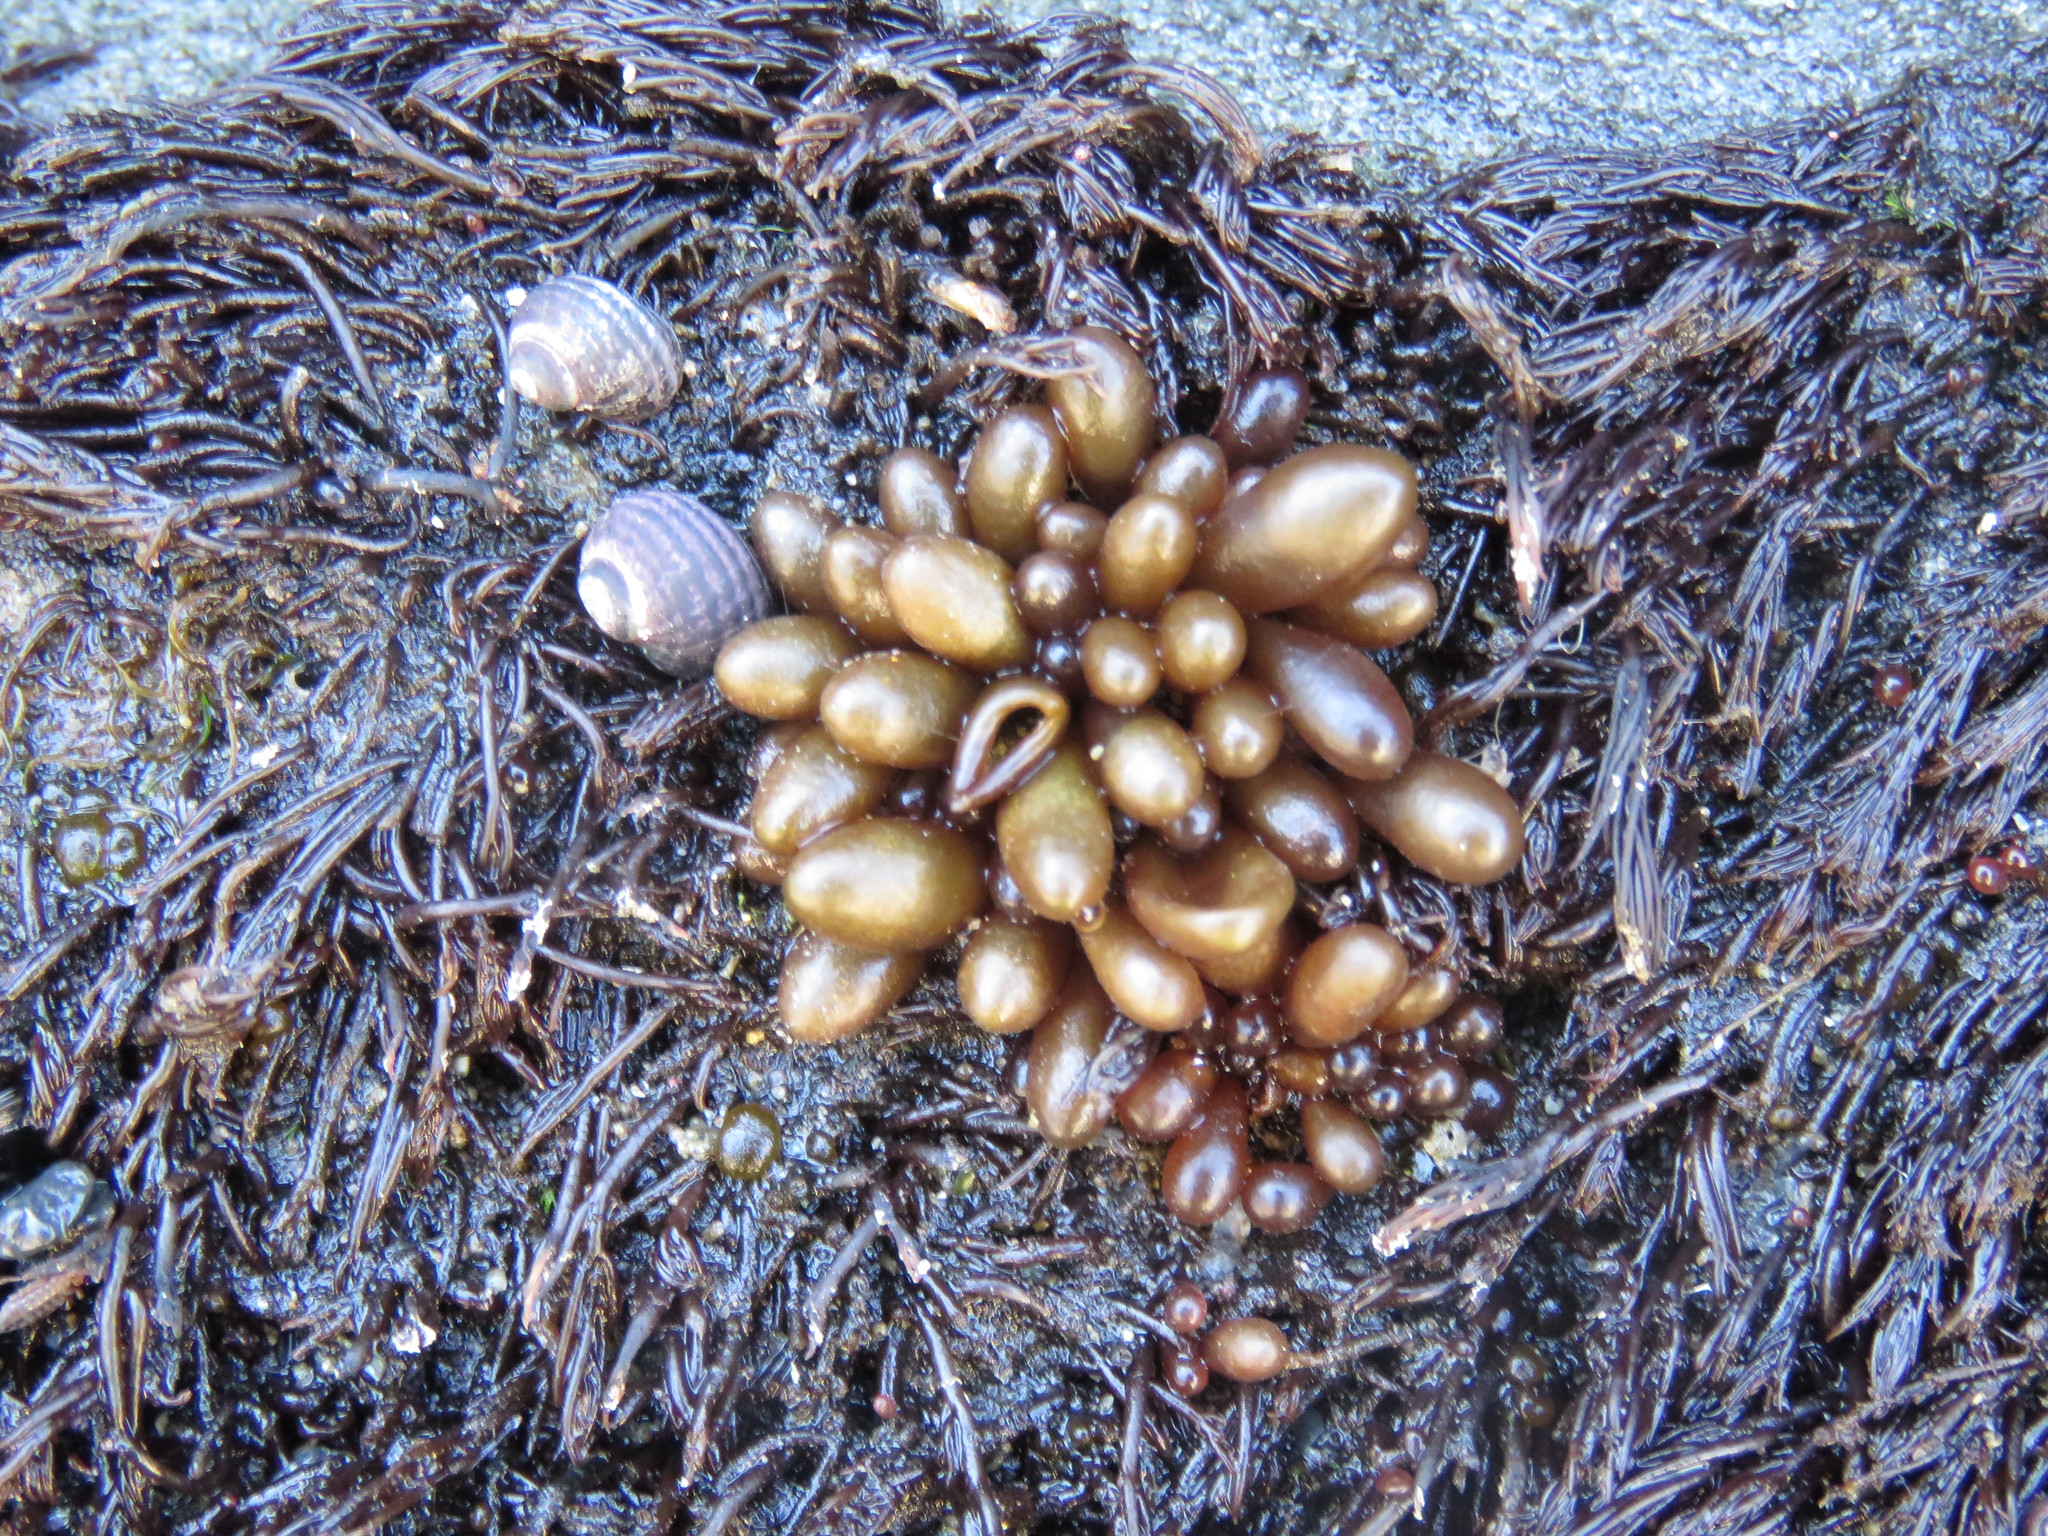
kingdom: Plantae
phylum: Rhodophyta
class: Florideophyceae
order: Palmariales
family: Palmariaceae
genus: Halosaccion
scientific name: Halosaccion glandiforme
